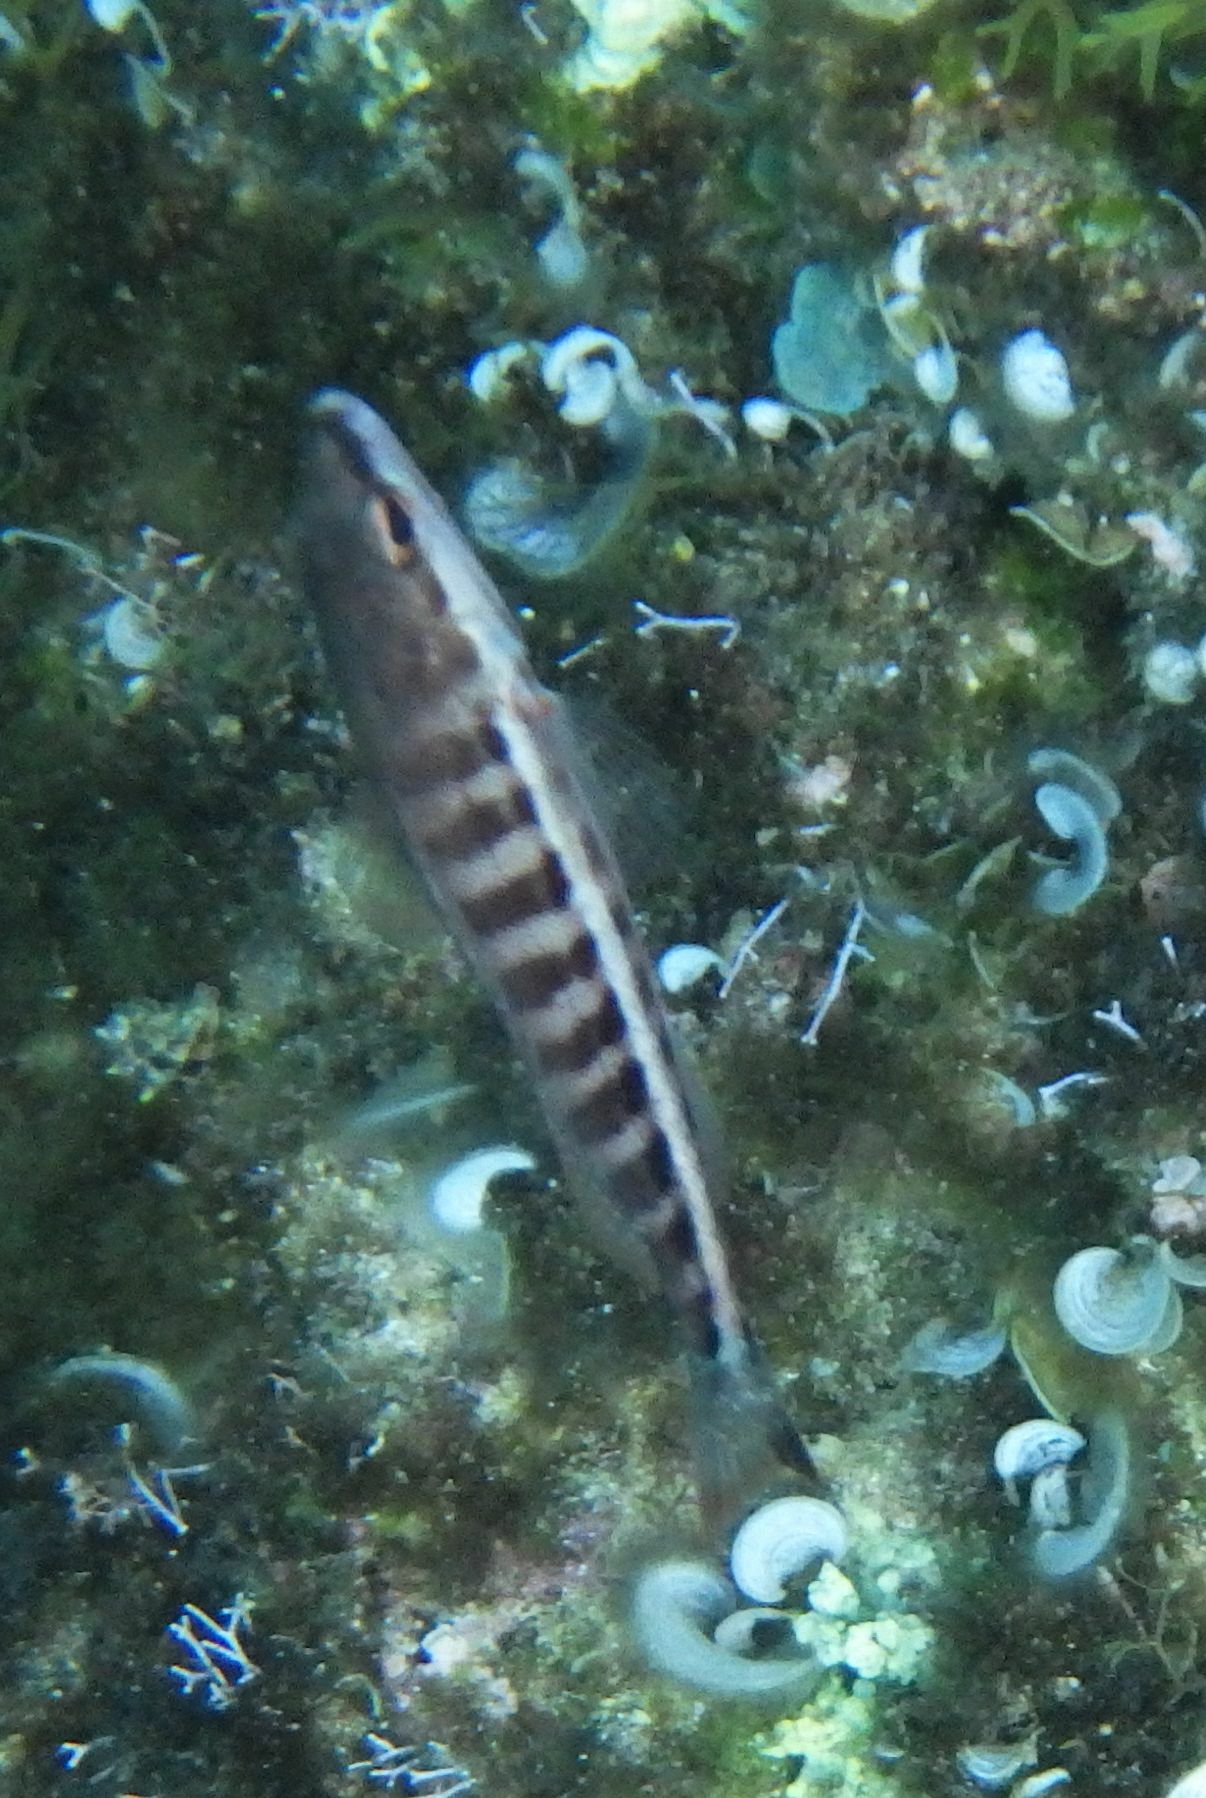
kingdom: Animalia
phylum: Chordata
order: Perciformes
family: Serranidae
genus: Serranus
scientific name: Serranus cabrilla
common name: Comber
